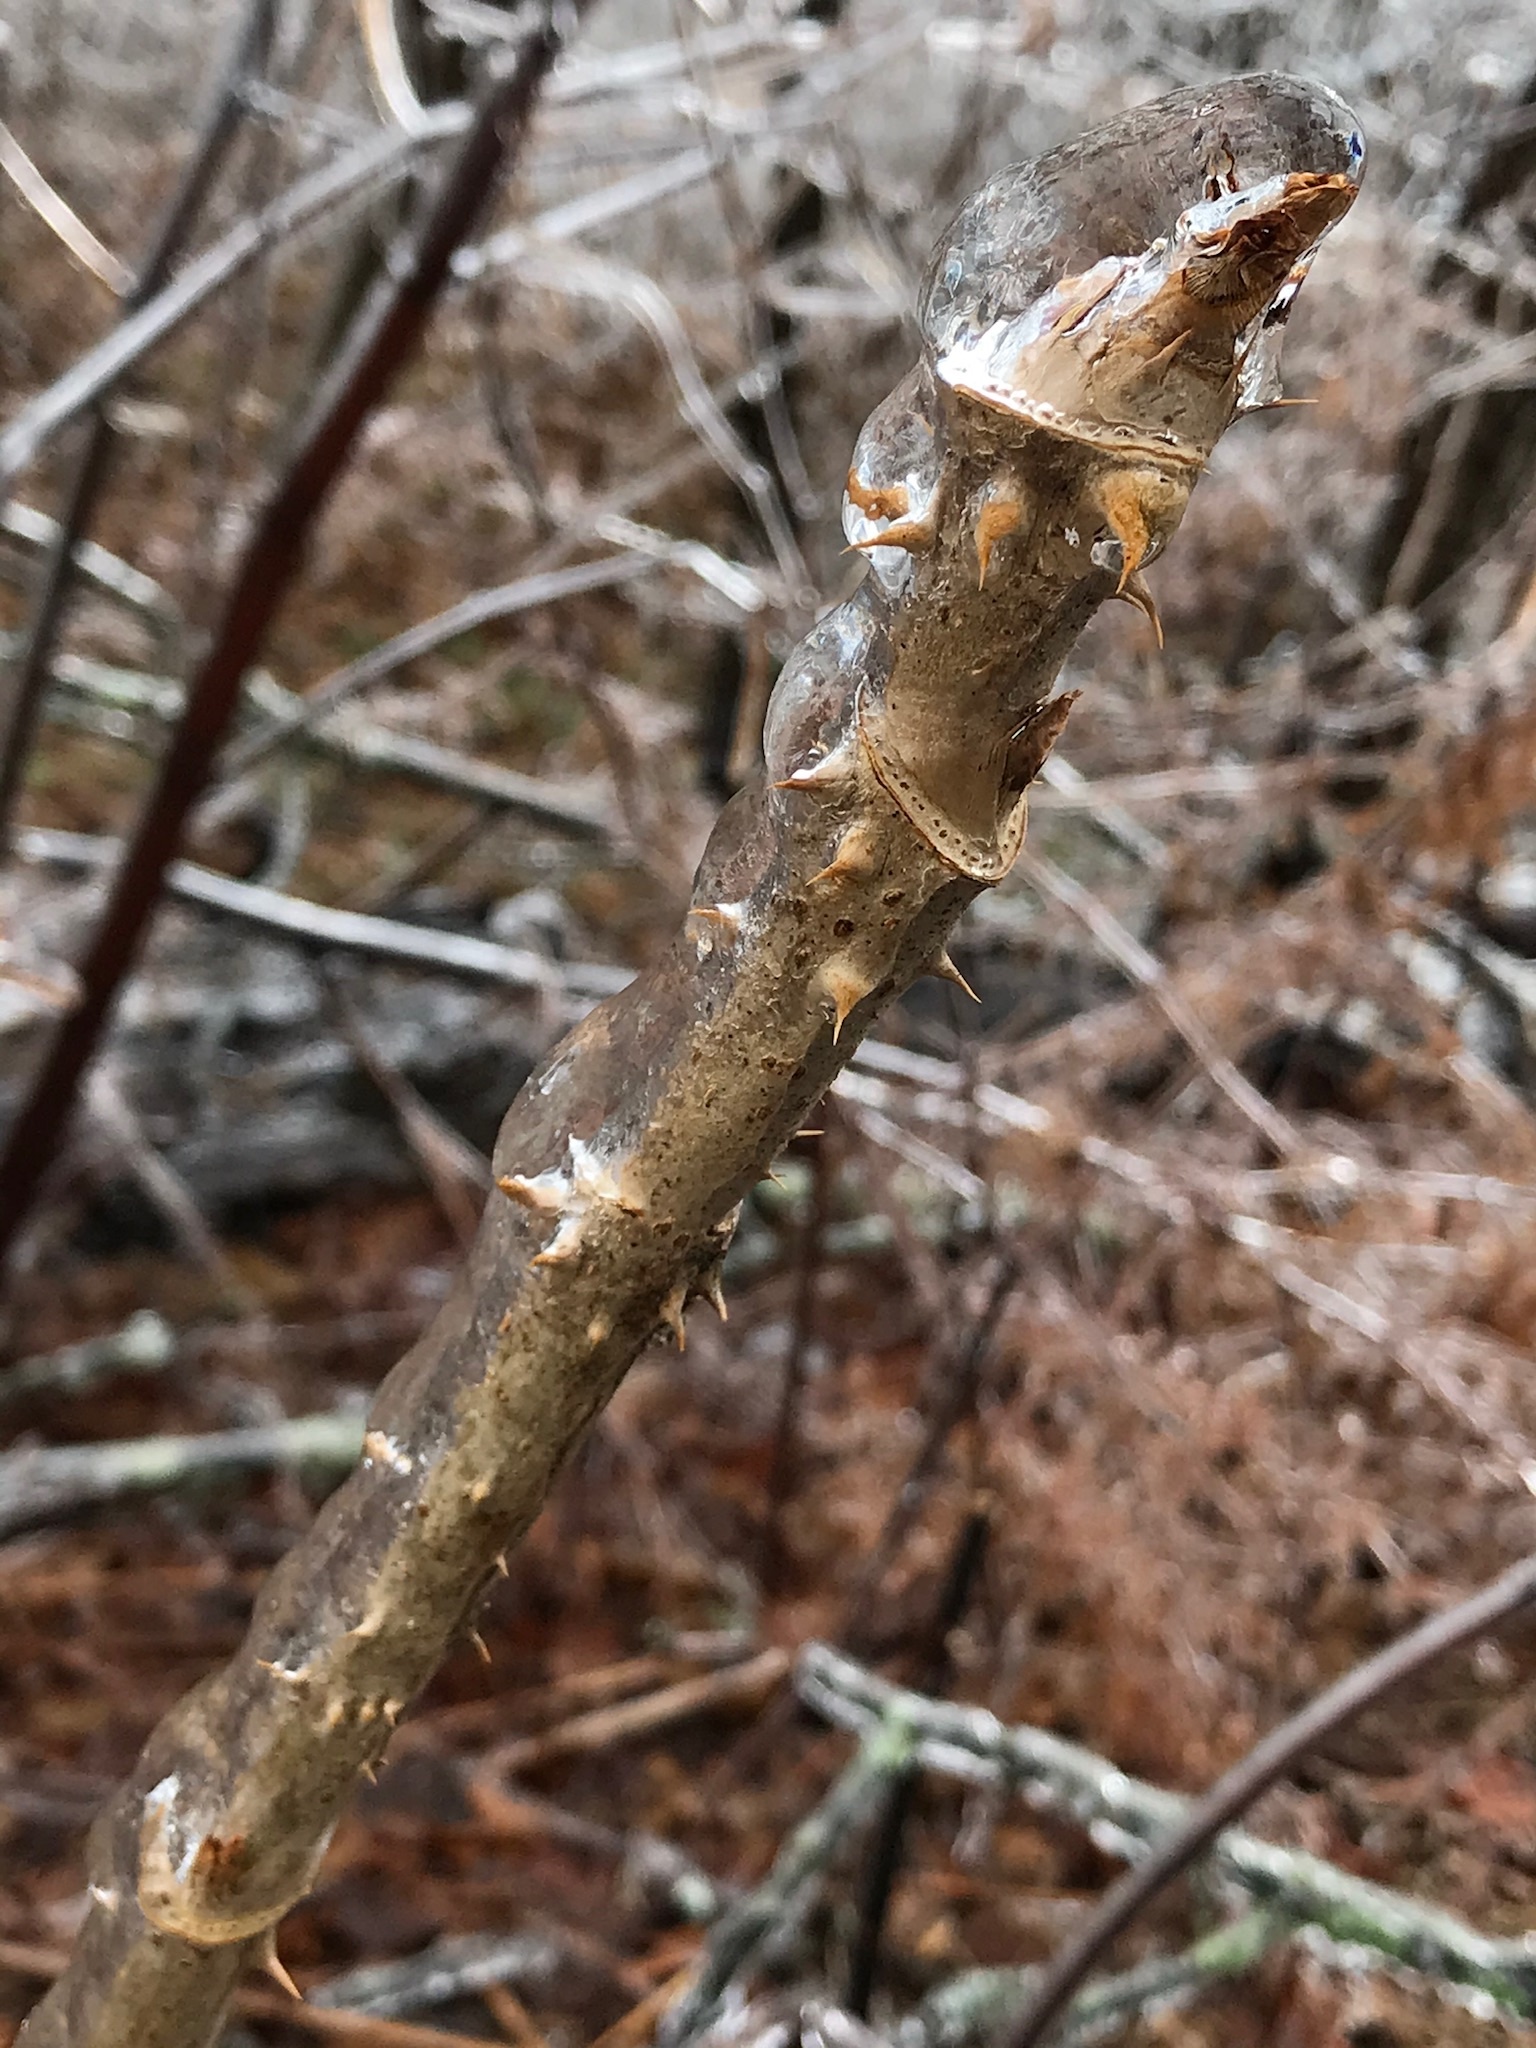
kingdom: Plantae
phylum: Tracheophyta
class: Magnoliopsida
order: Apiales
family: Araliaceae
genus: Aralia
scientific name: Aralia elata
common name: Japanese angelica-tree
